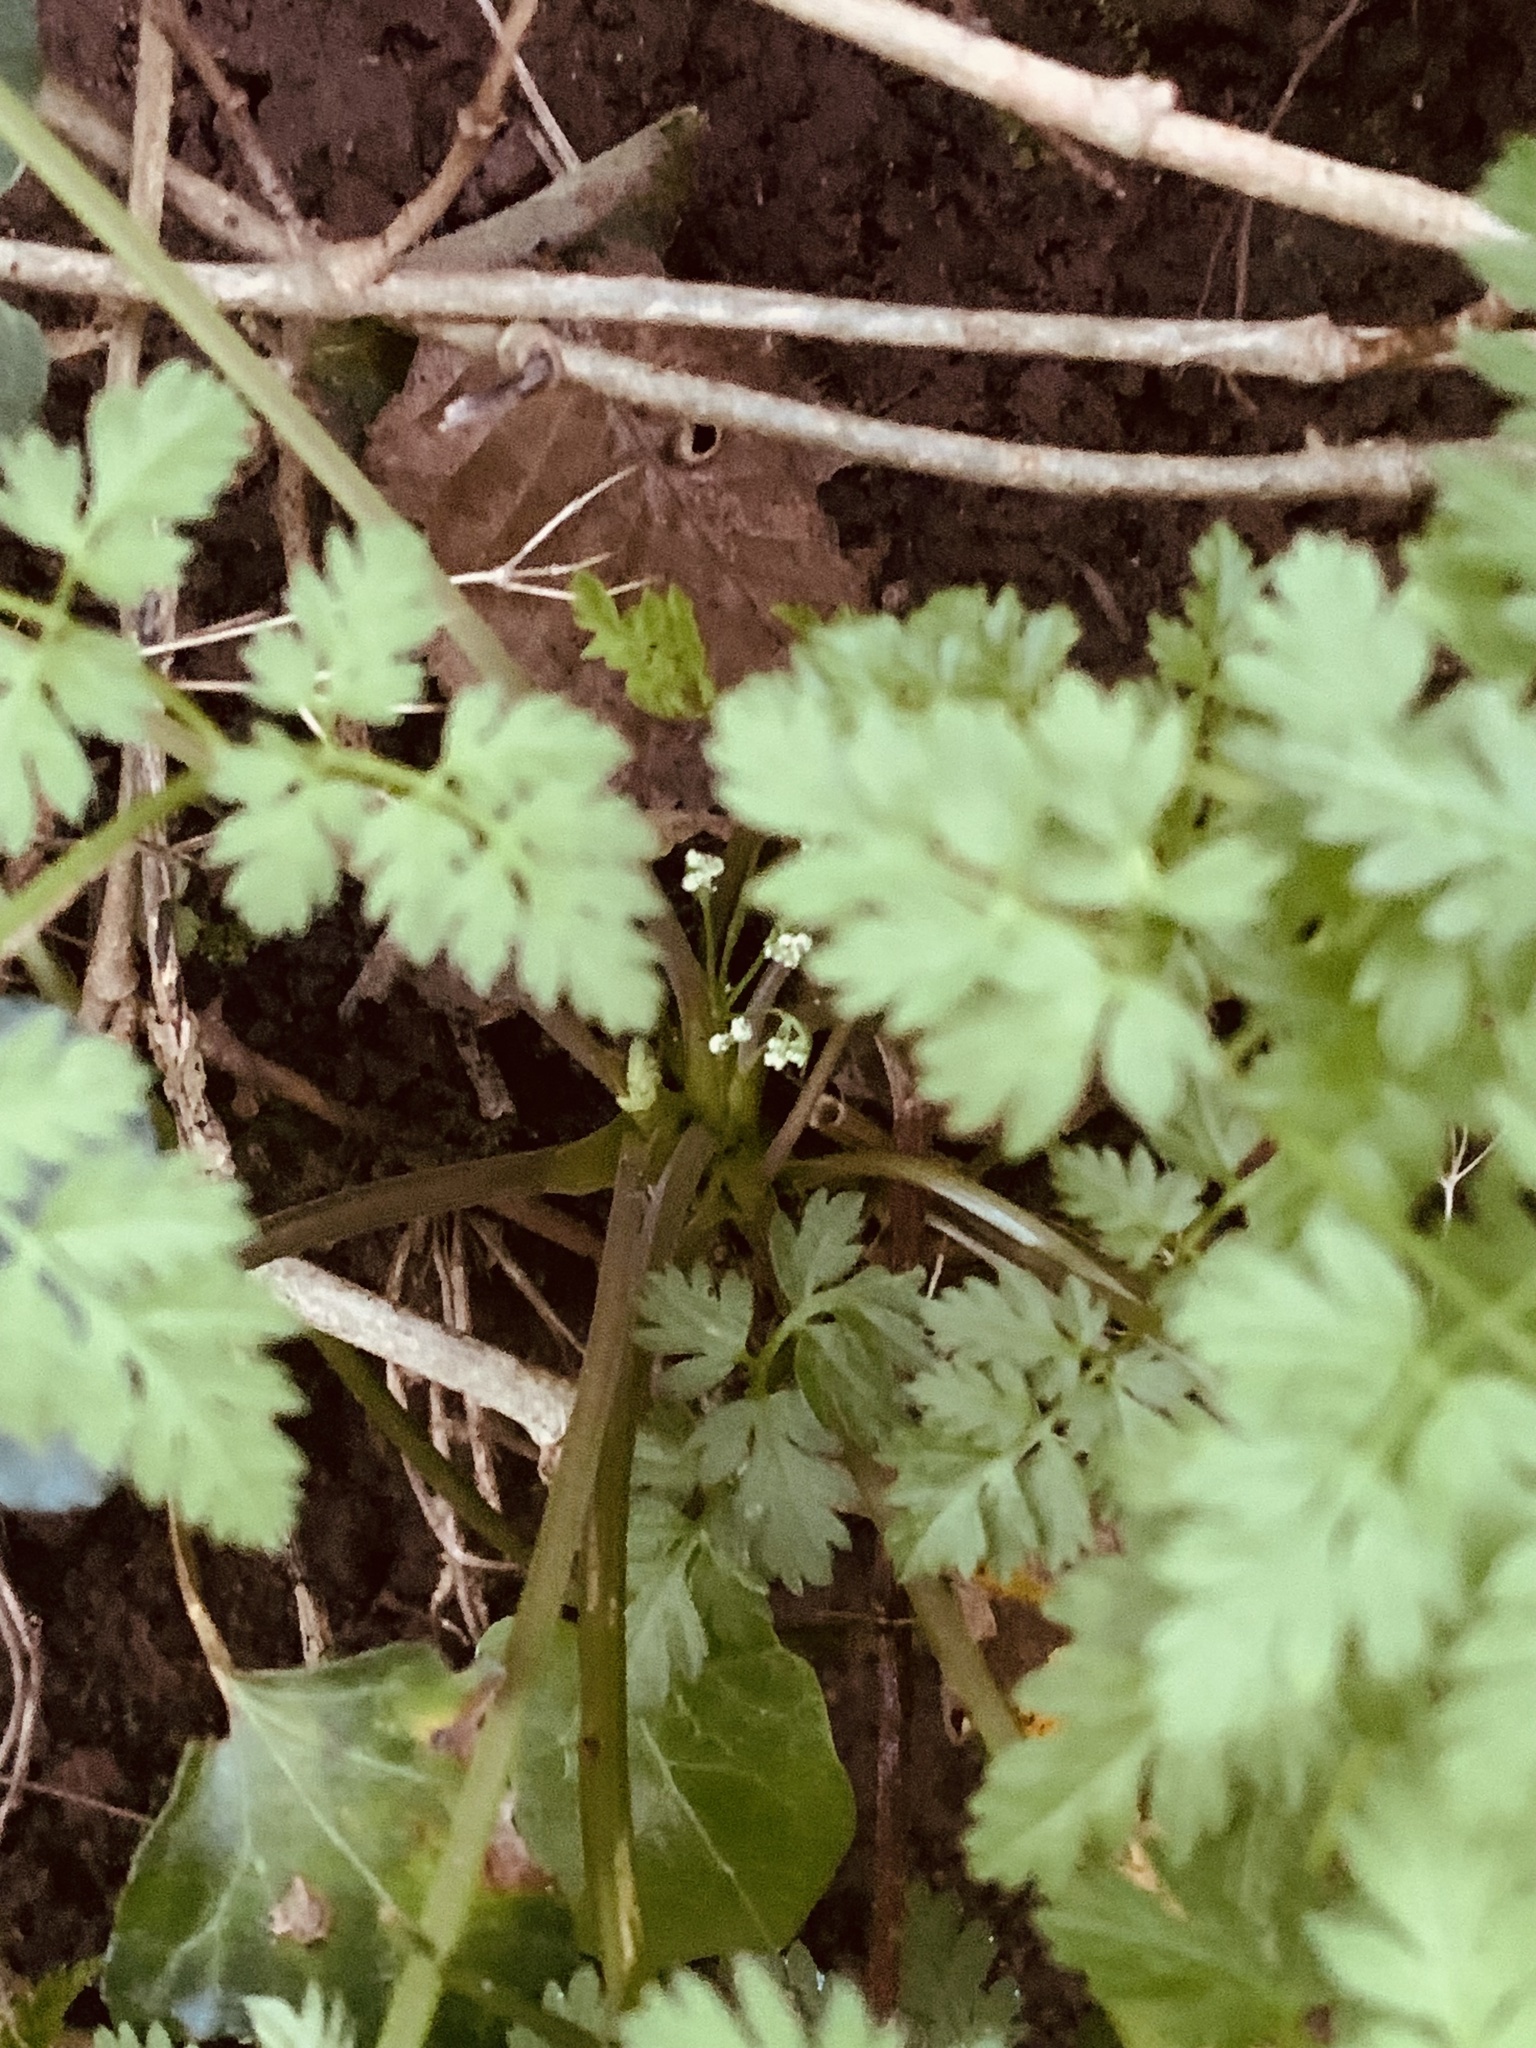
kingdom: Plantae
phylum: Tracheophyta
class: Magnoliopsida
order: Apiales
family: Apiaceae
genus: Anthriscus
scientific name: Anthriscus sylvestris
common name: Cow parsley
